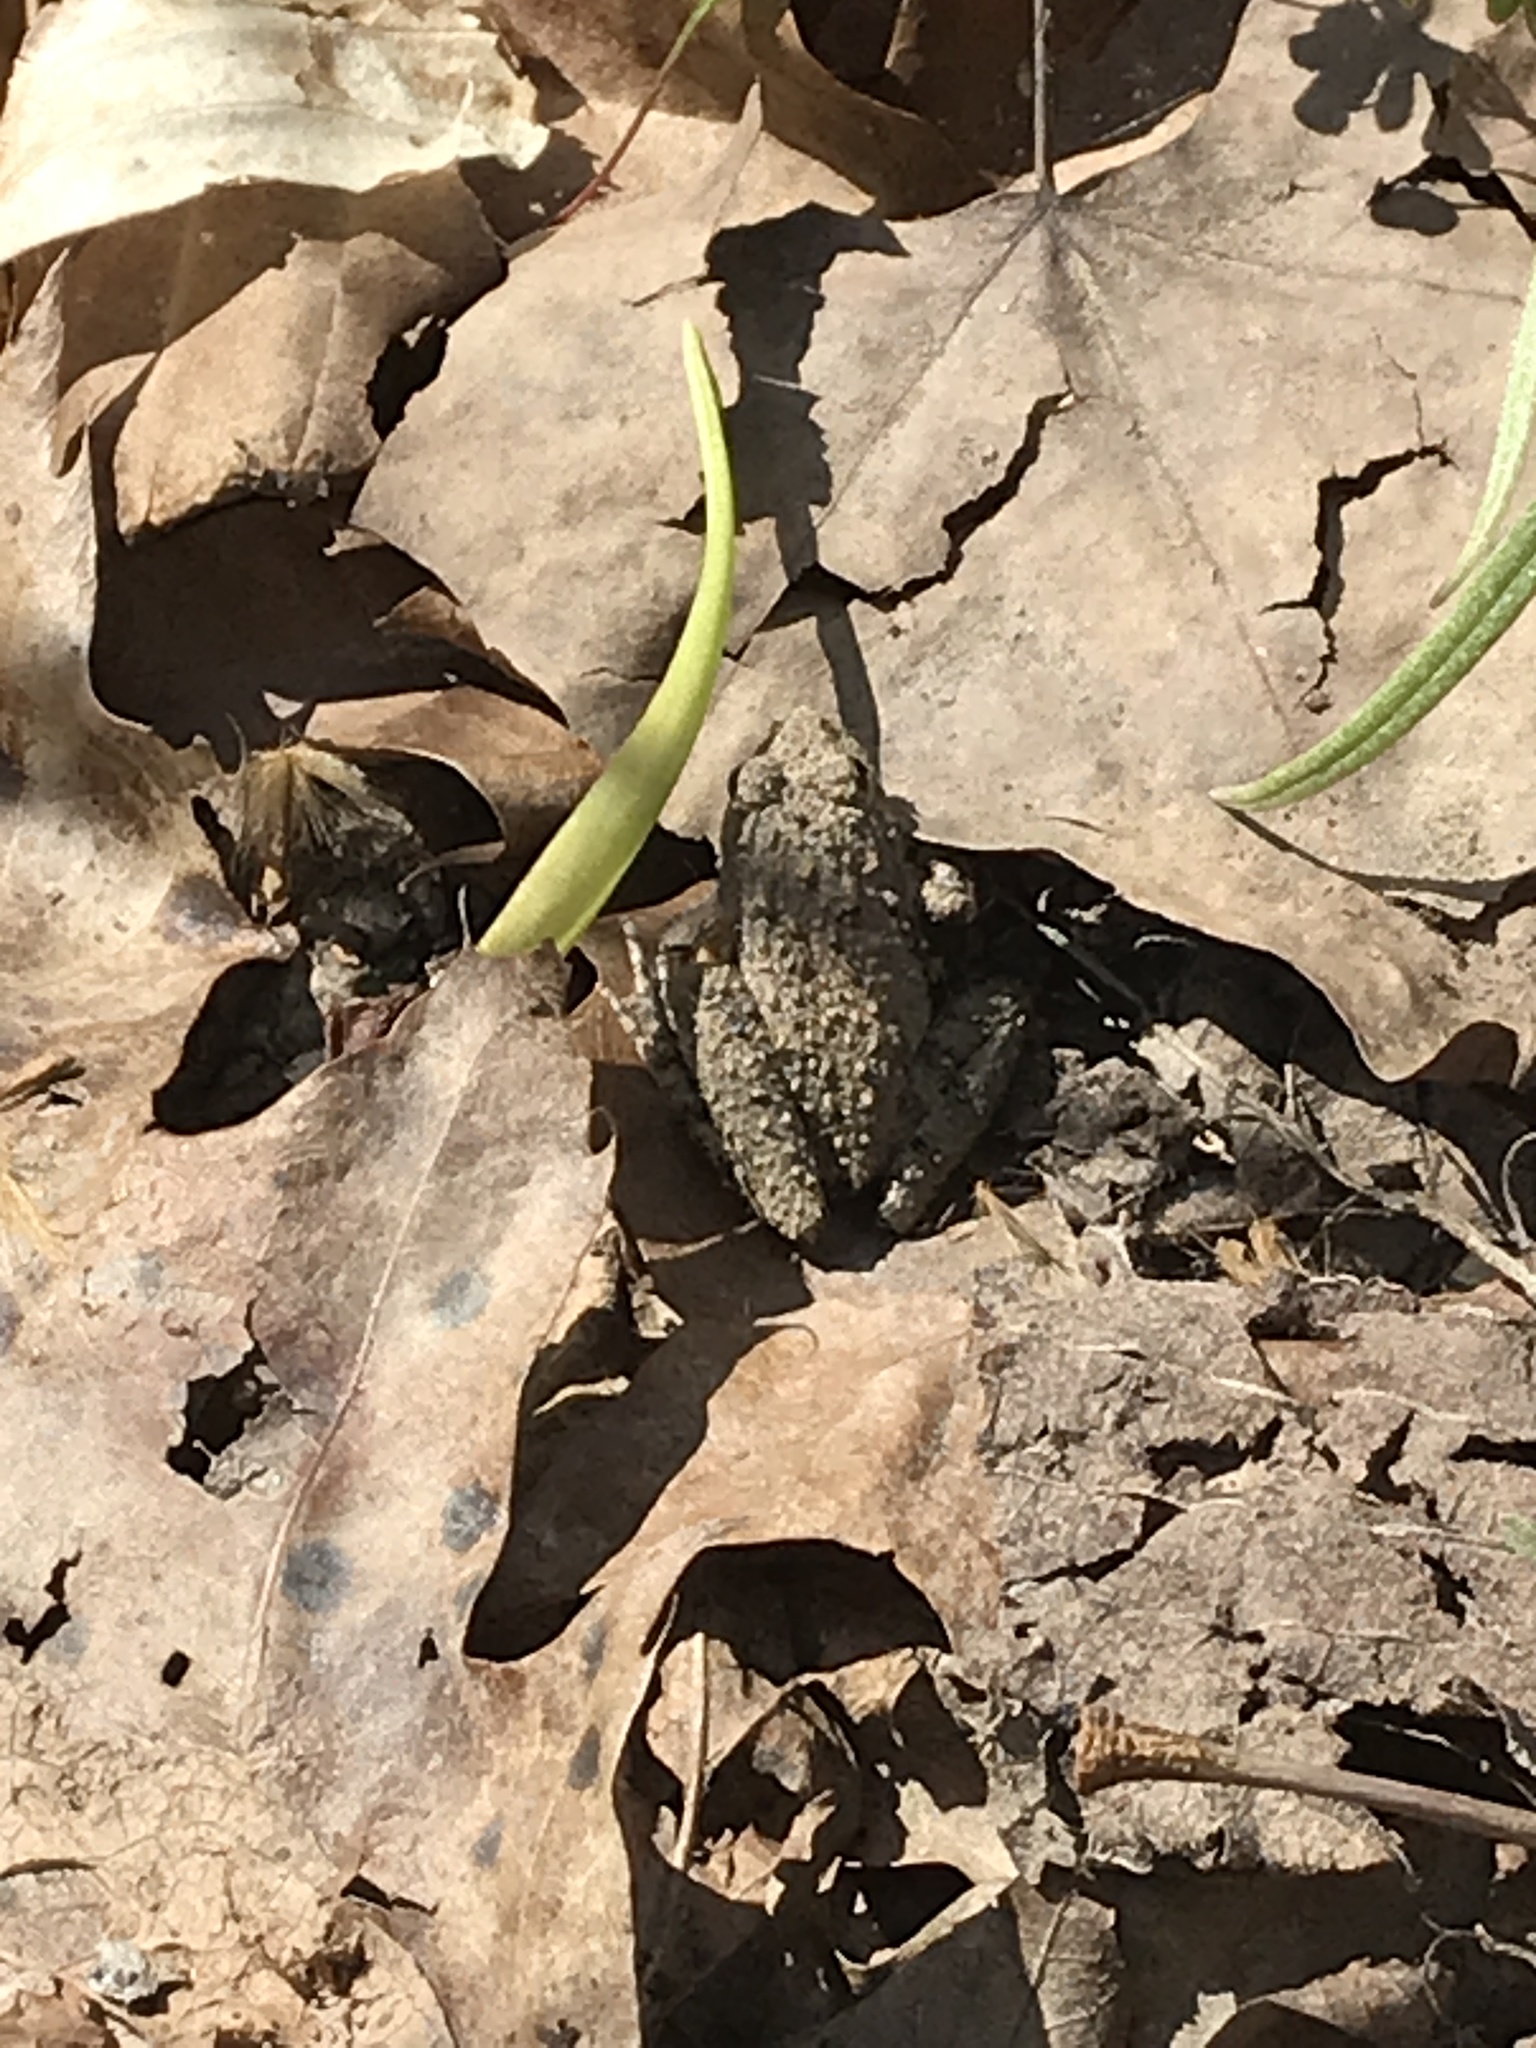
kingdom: Animalia
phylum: Chordata
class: Amphibia
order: Anura
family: Hylidae
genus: Acris
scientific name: Acris blanchardi
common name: Blanchard's cricket frog
